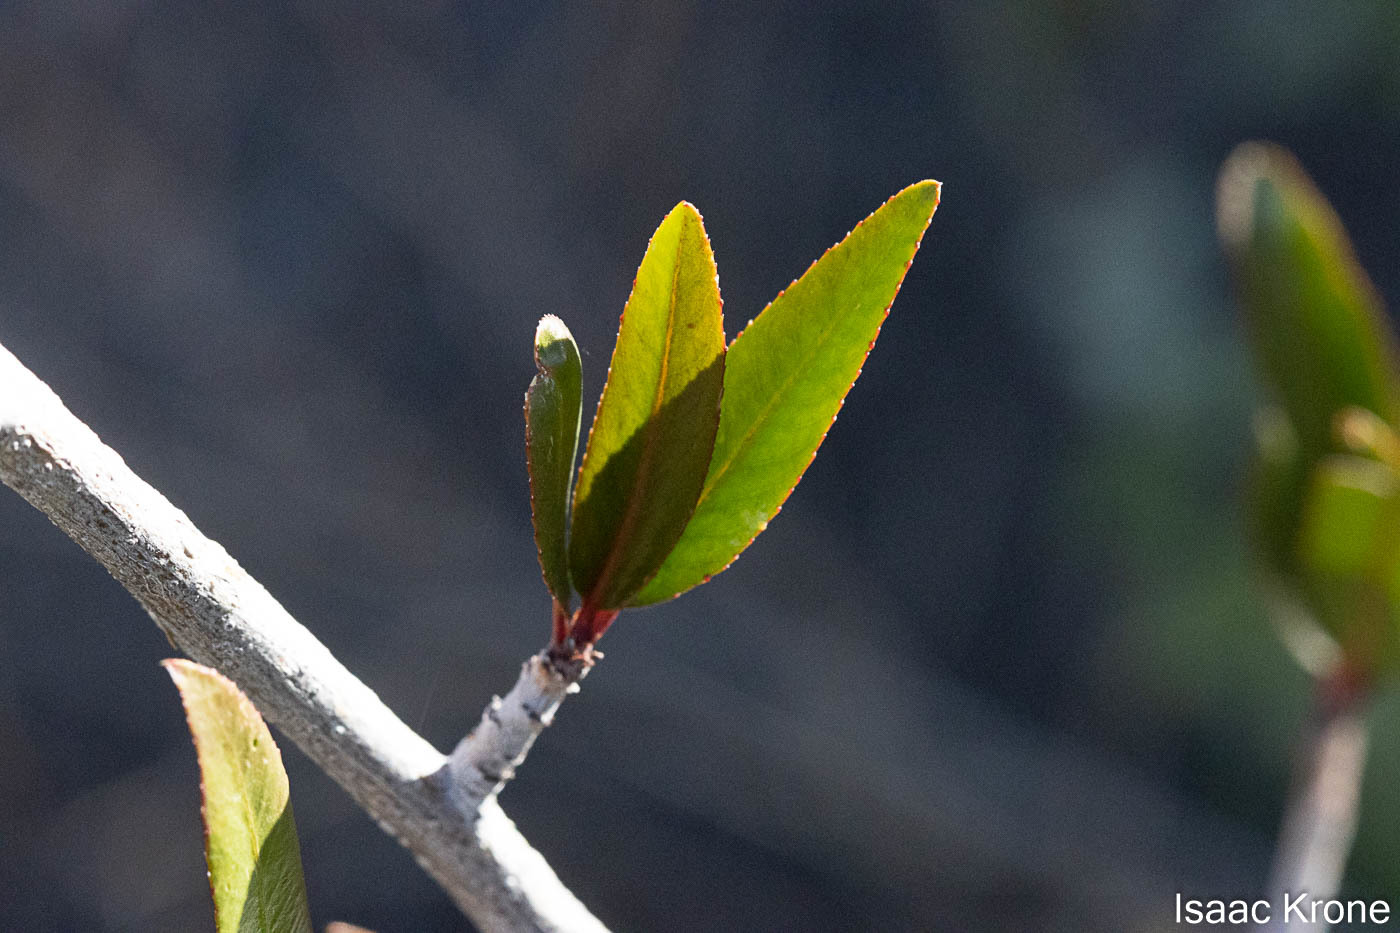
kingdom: Plantae
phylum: Tracheophyta
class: Magnoliopsida
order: Malpighiales
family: Euphorbiaceae
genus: Pleradenophora
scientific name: Pleradenophora bilocularis
